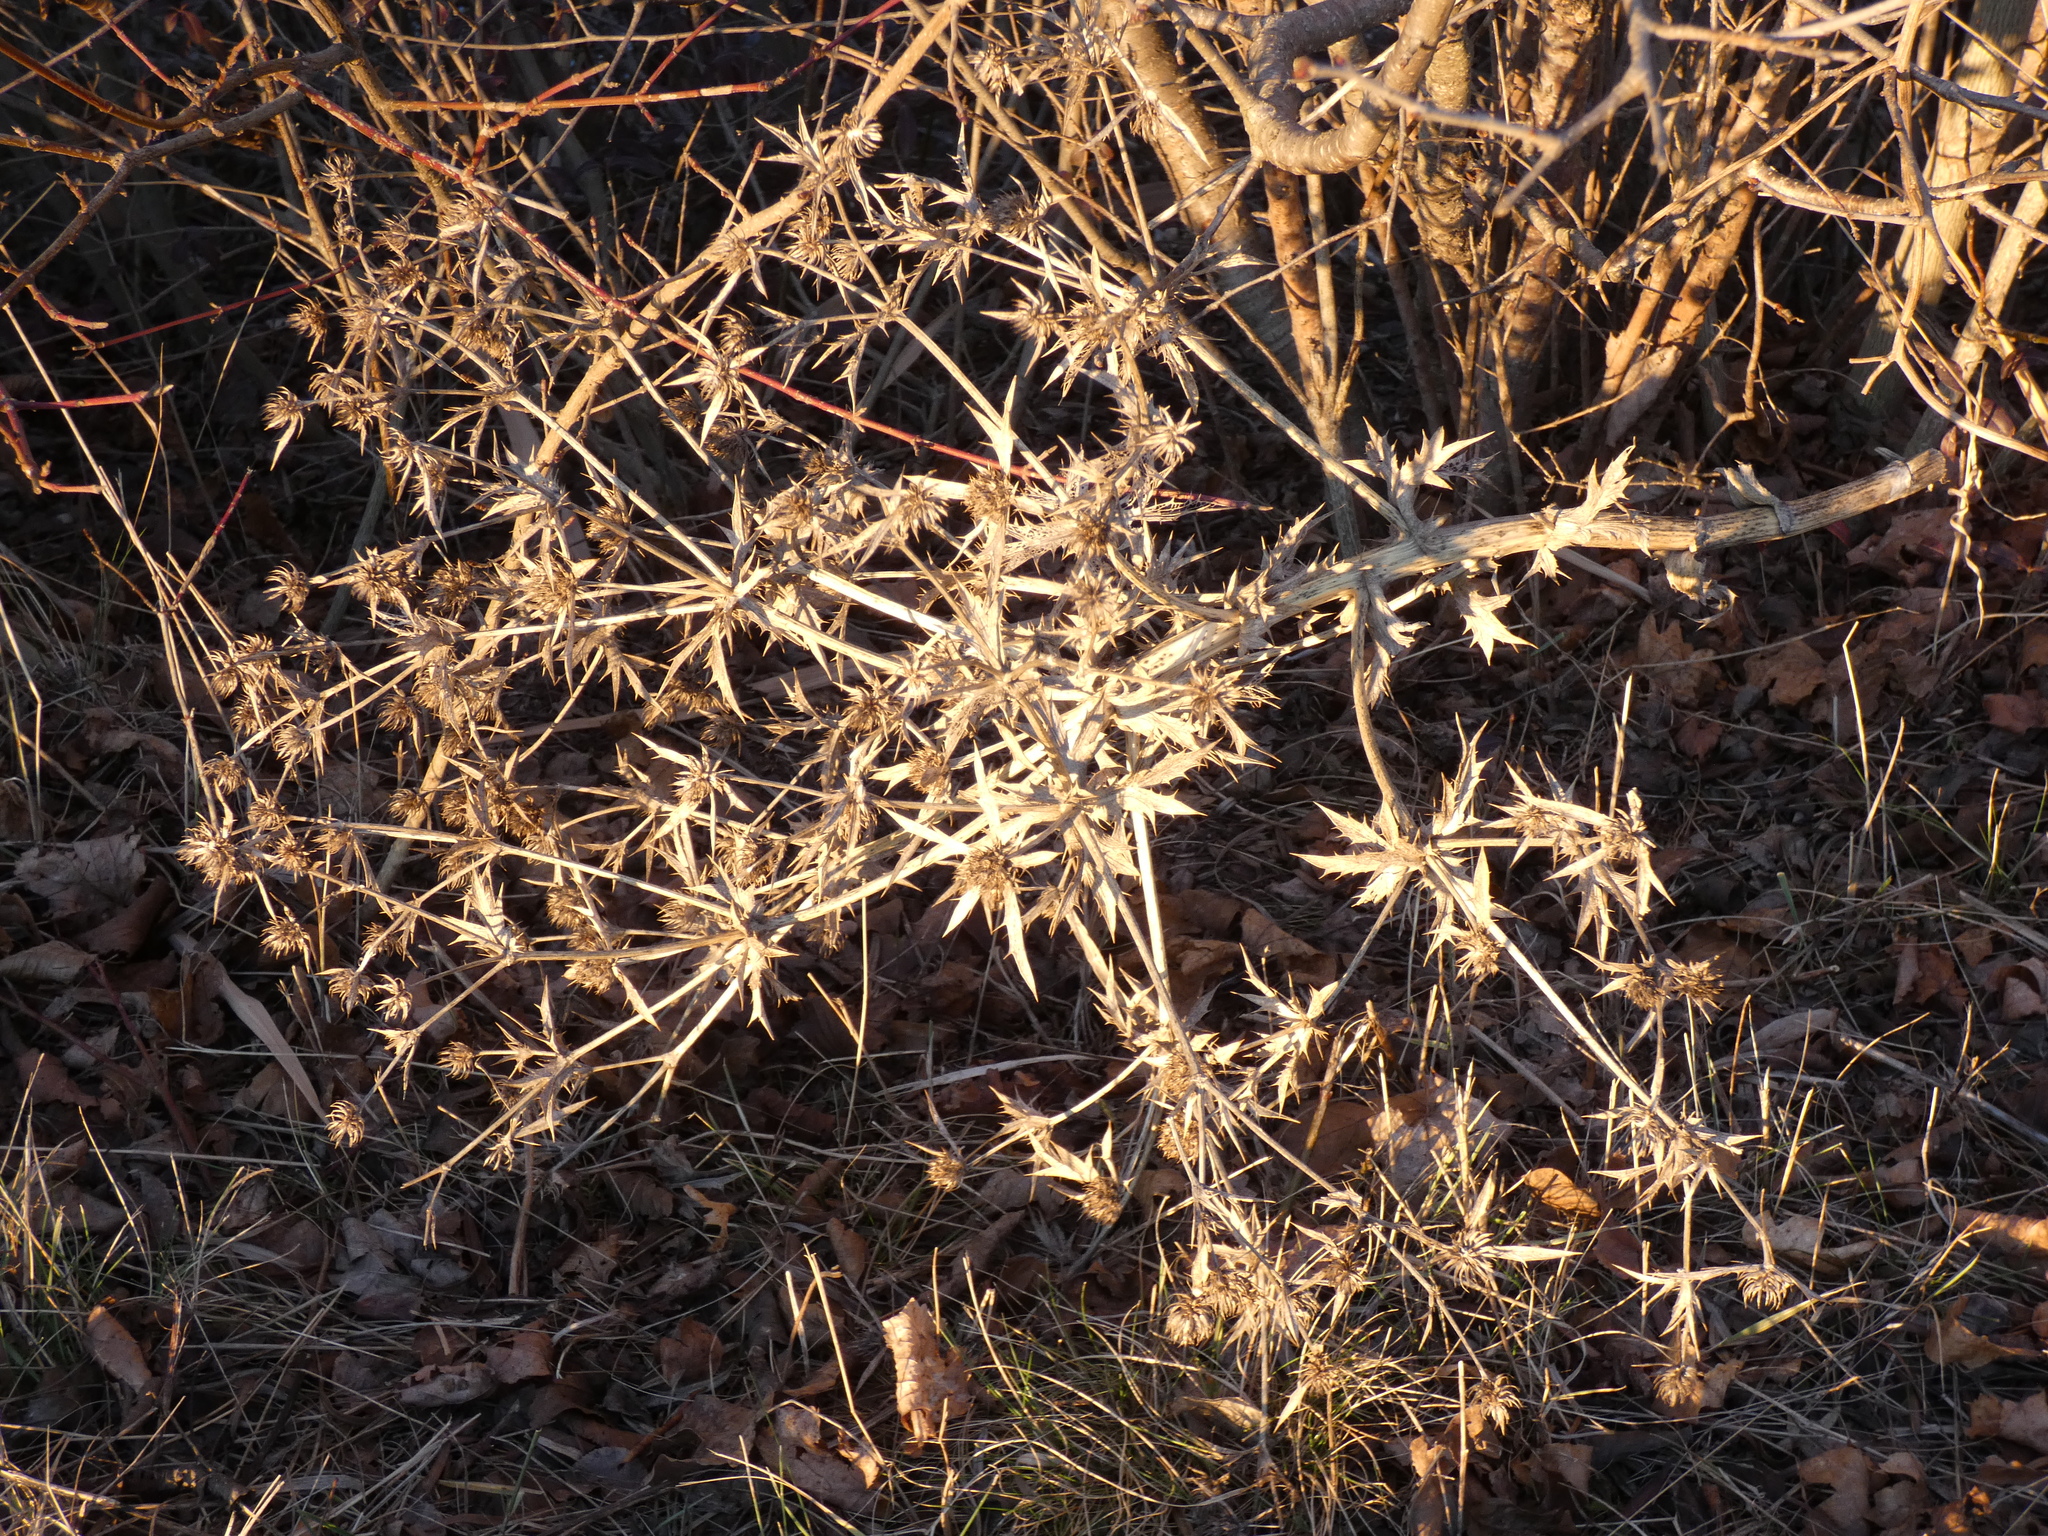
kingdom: Plantae
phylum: Tracheophyta
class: Magnoliopsida
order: Apiales
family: Apiaceae
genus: Eryngium
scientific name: Eryngium campestre
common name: Field eryngo
